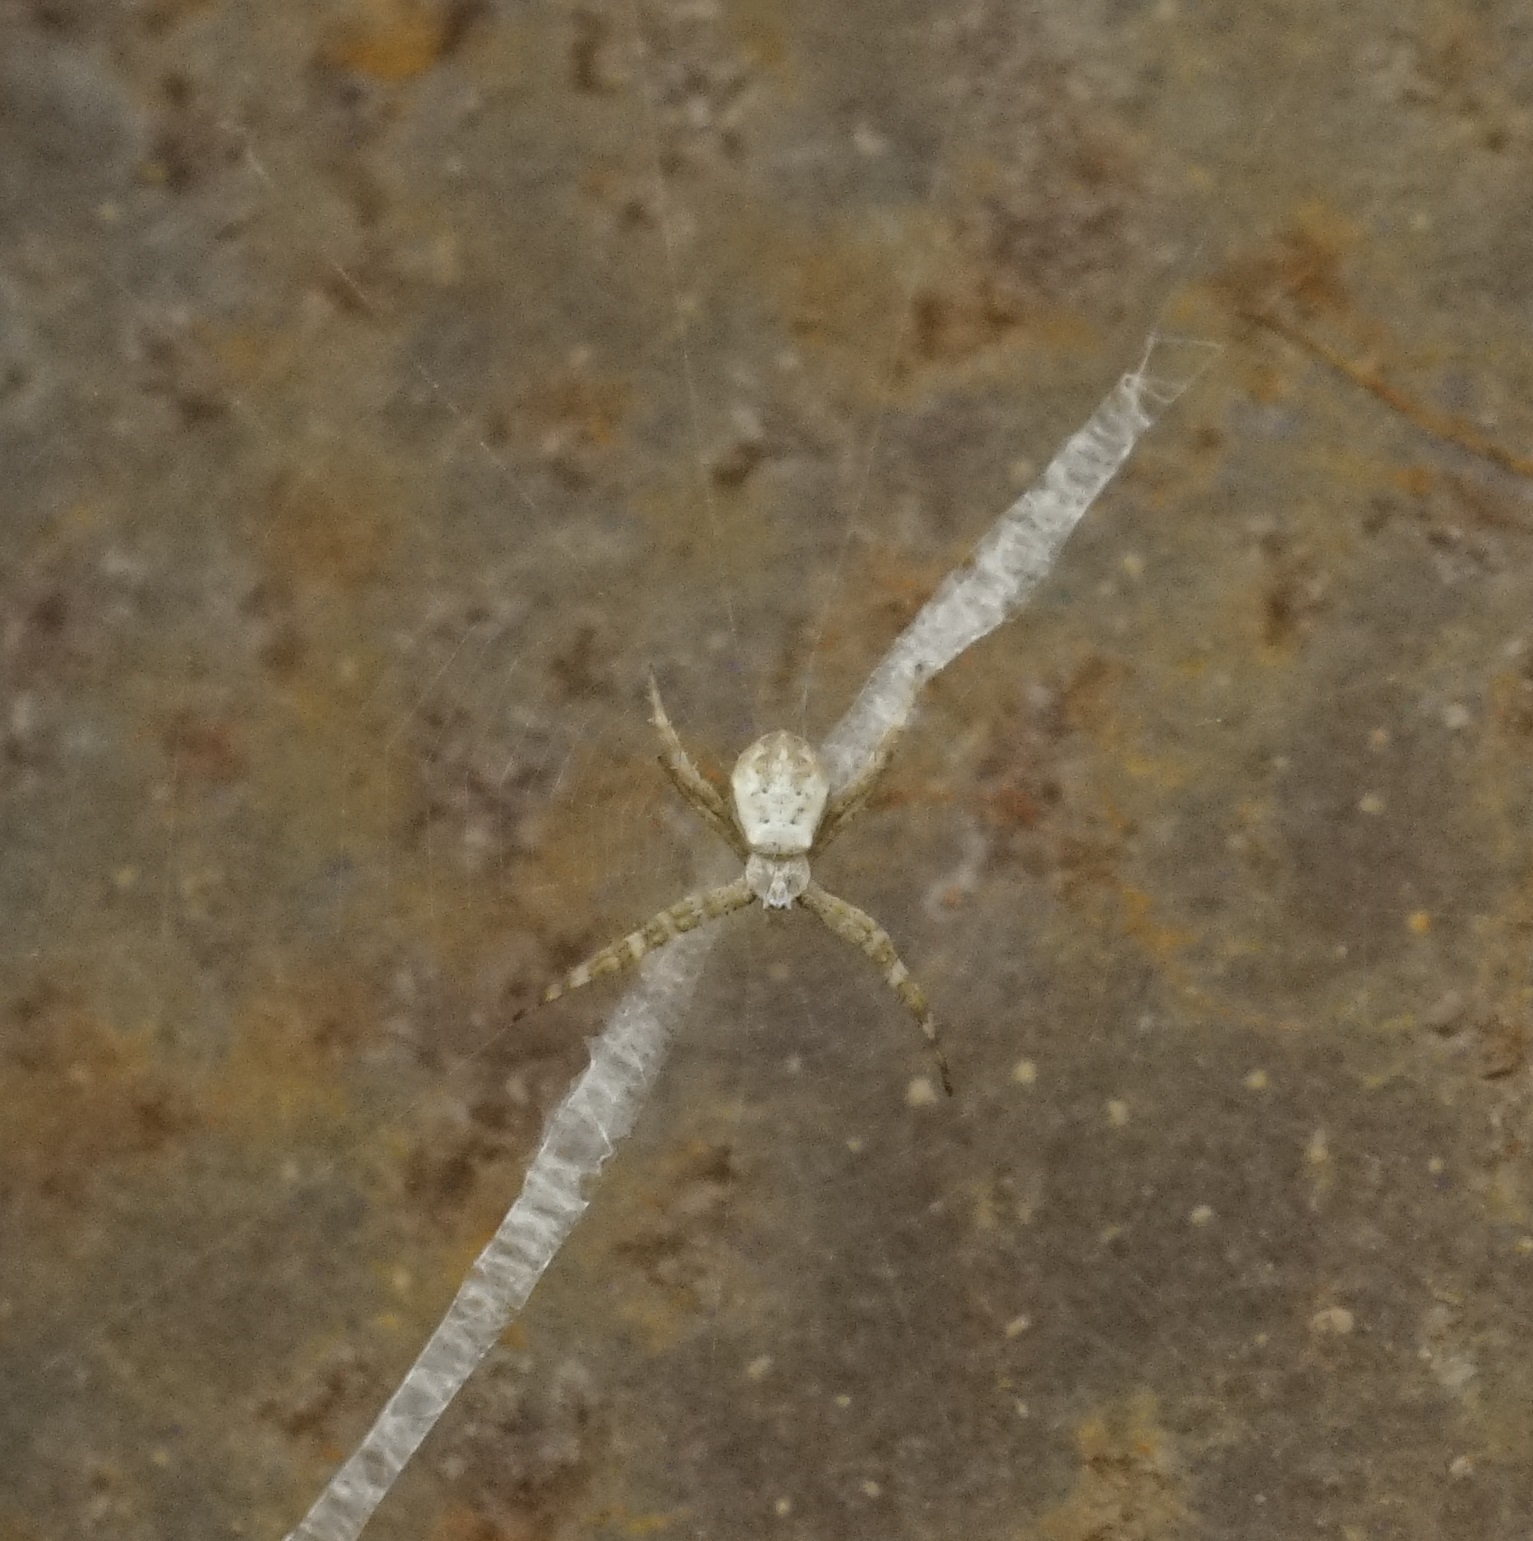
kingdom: Animalia
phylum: Arthropoda
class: Arachnida
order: Araneae
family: Araneidae
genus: Argiope
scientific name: Argiope keyserlingi
